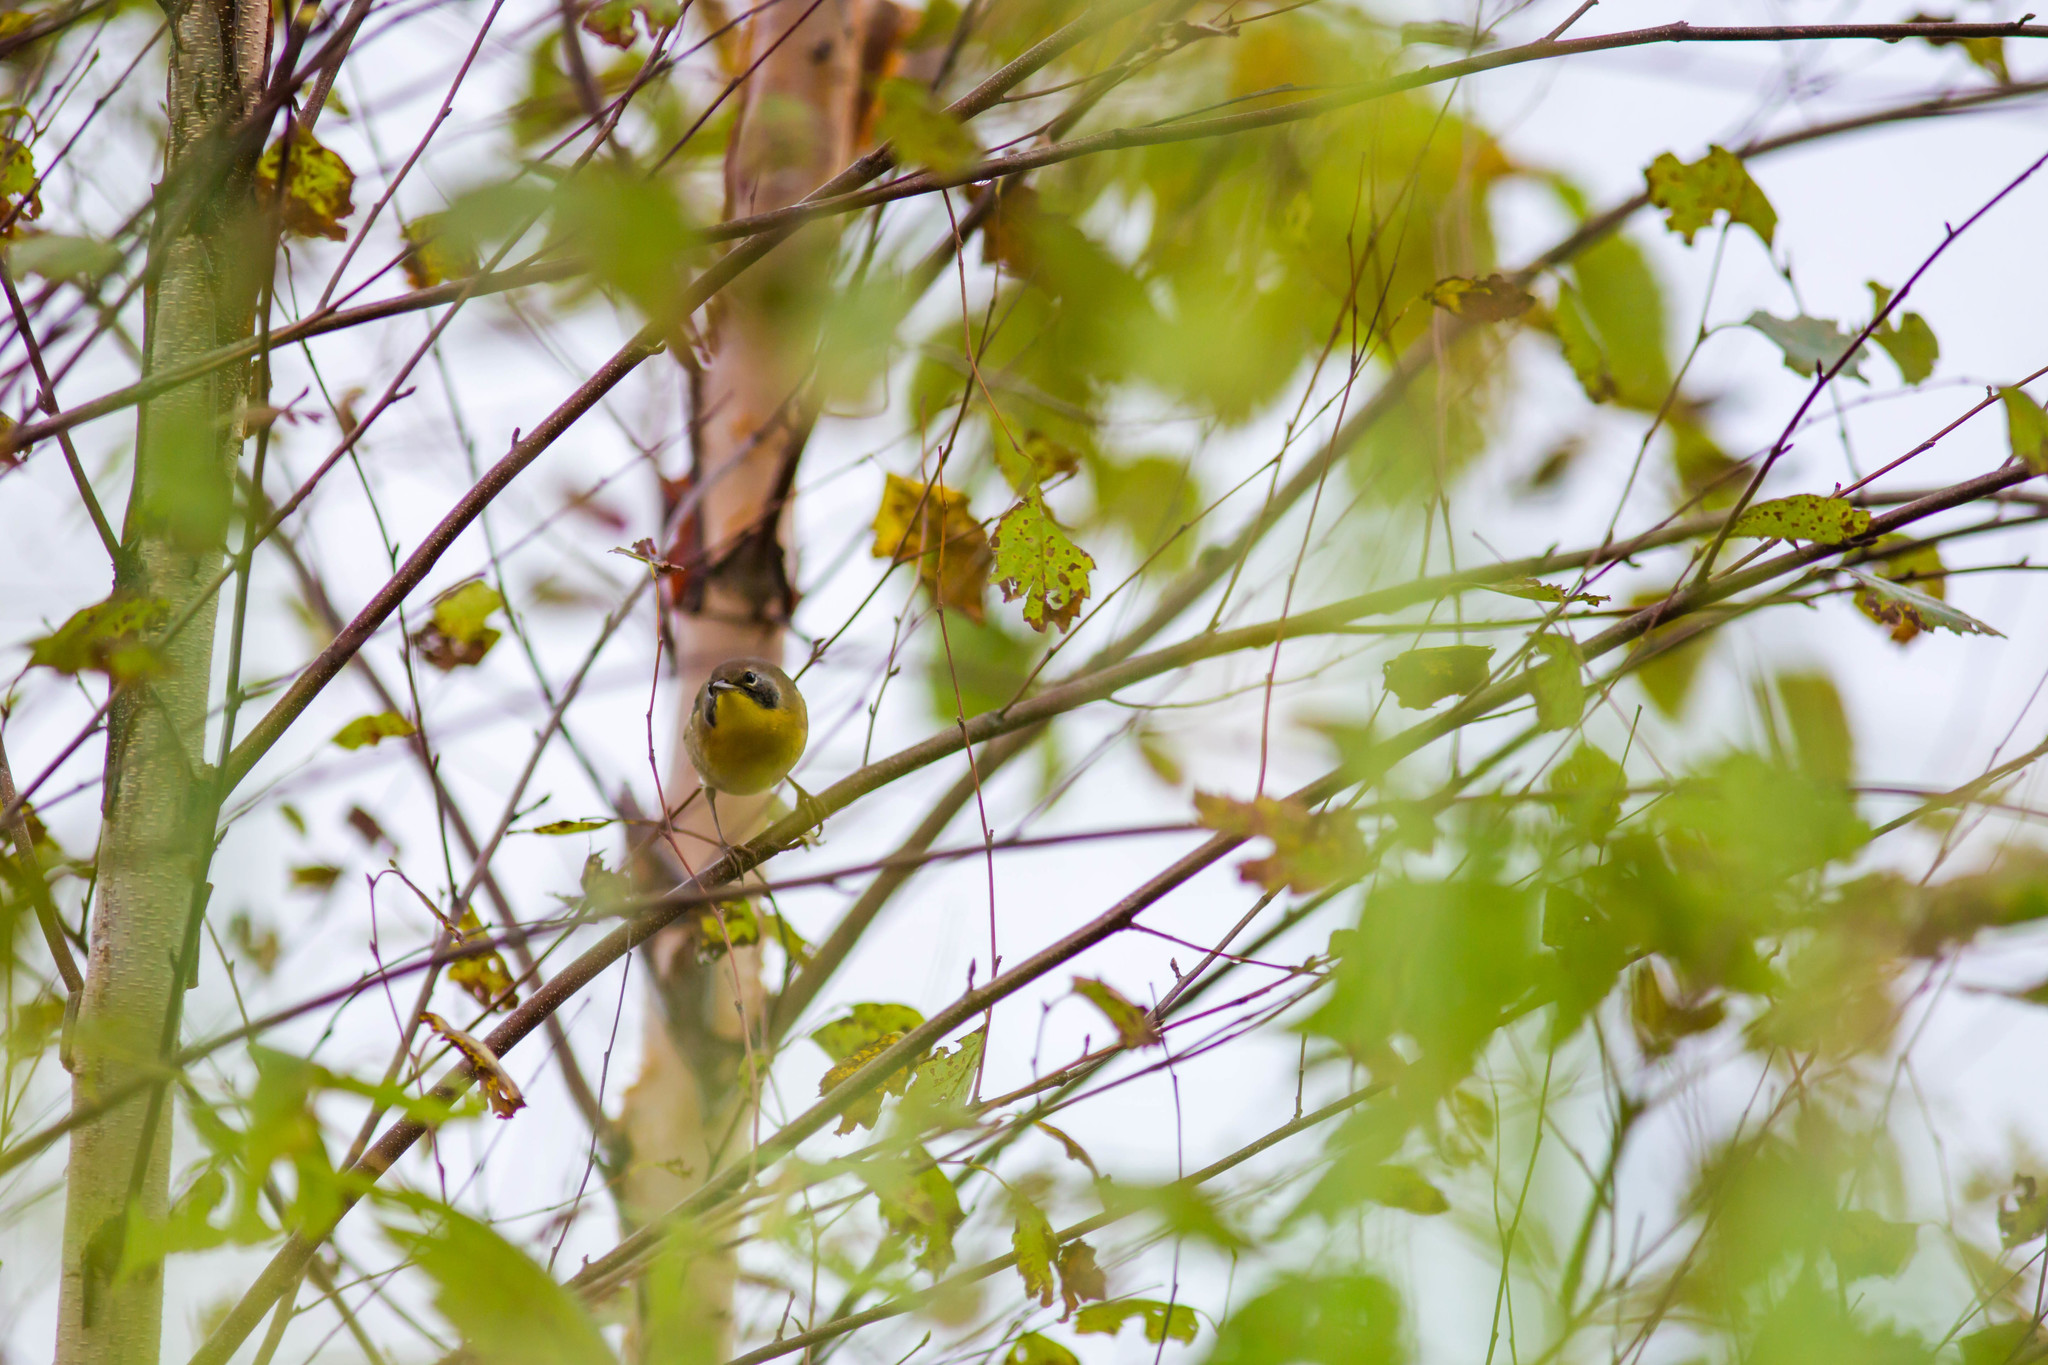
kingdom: Animalia
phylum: Chordata
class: Aves
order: Passeriformes
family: Parulidae
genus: Geothlypis
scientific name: Geothlypis trichas
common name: Common yellowthroat
